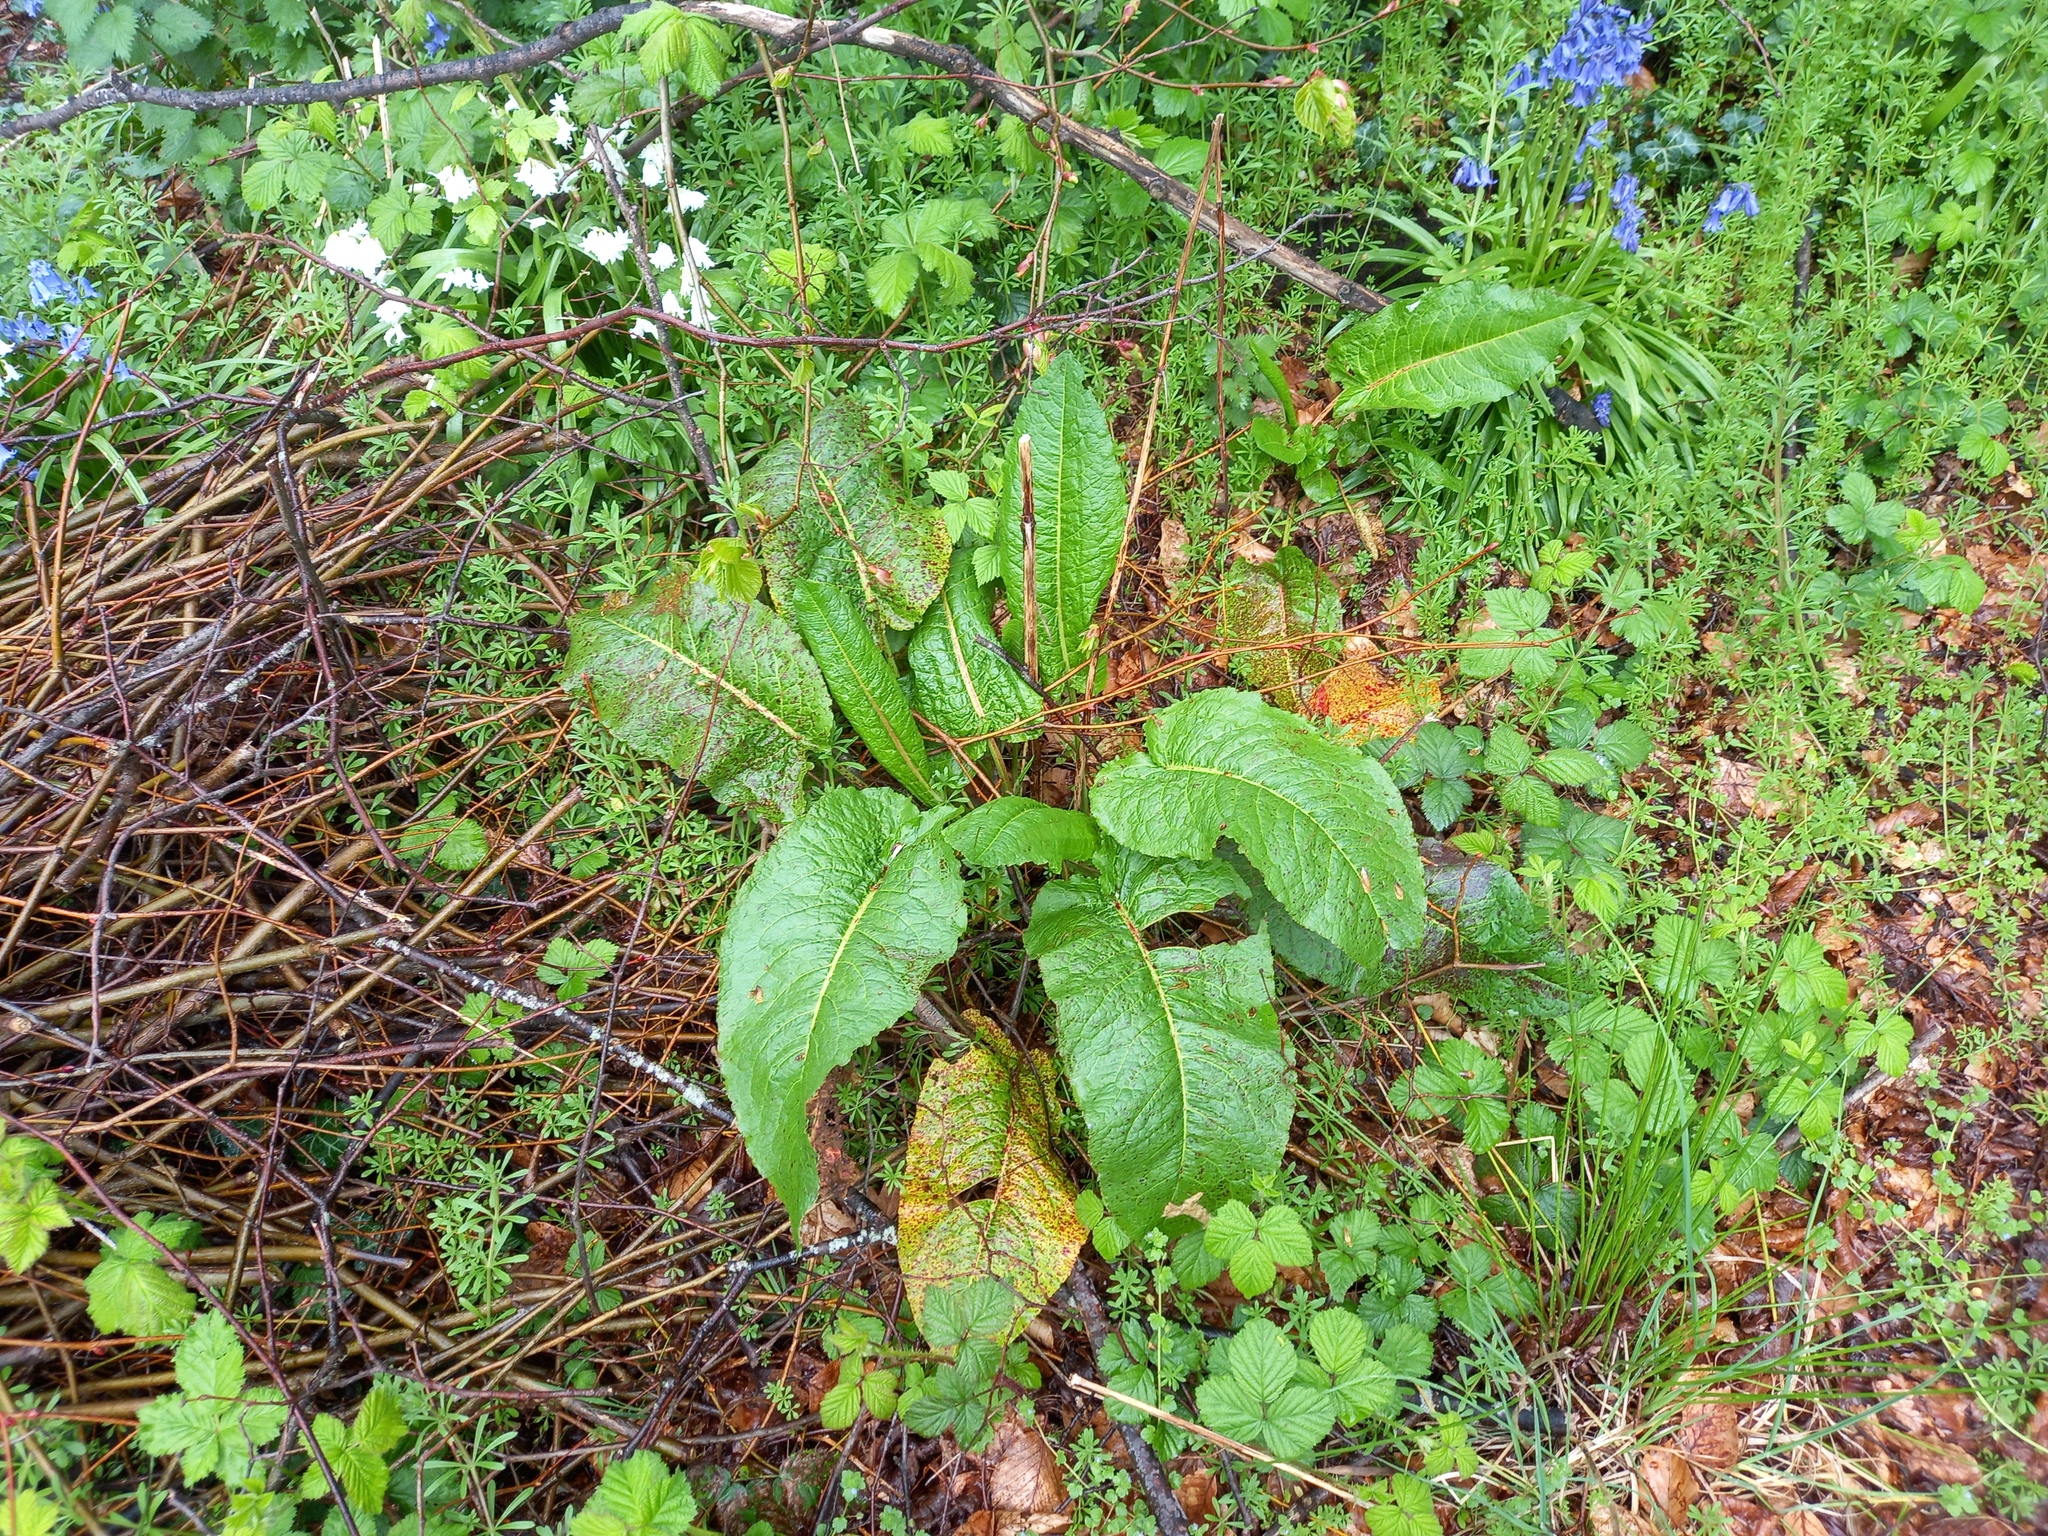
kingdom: Plantae
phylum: Tracheophyta
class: Magnoliopsida
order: Caryophyllales
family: Polygonaceae
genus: Rumex
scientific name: Rumex obtusifolius
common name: Bitter dock
